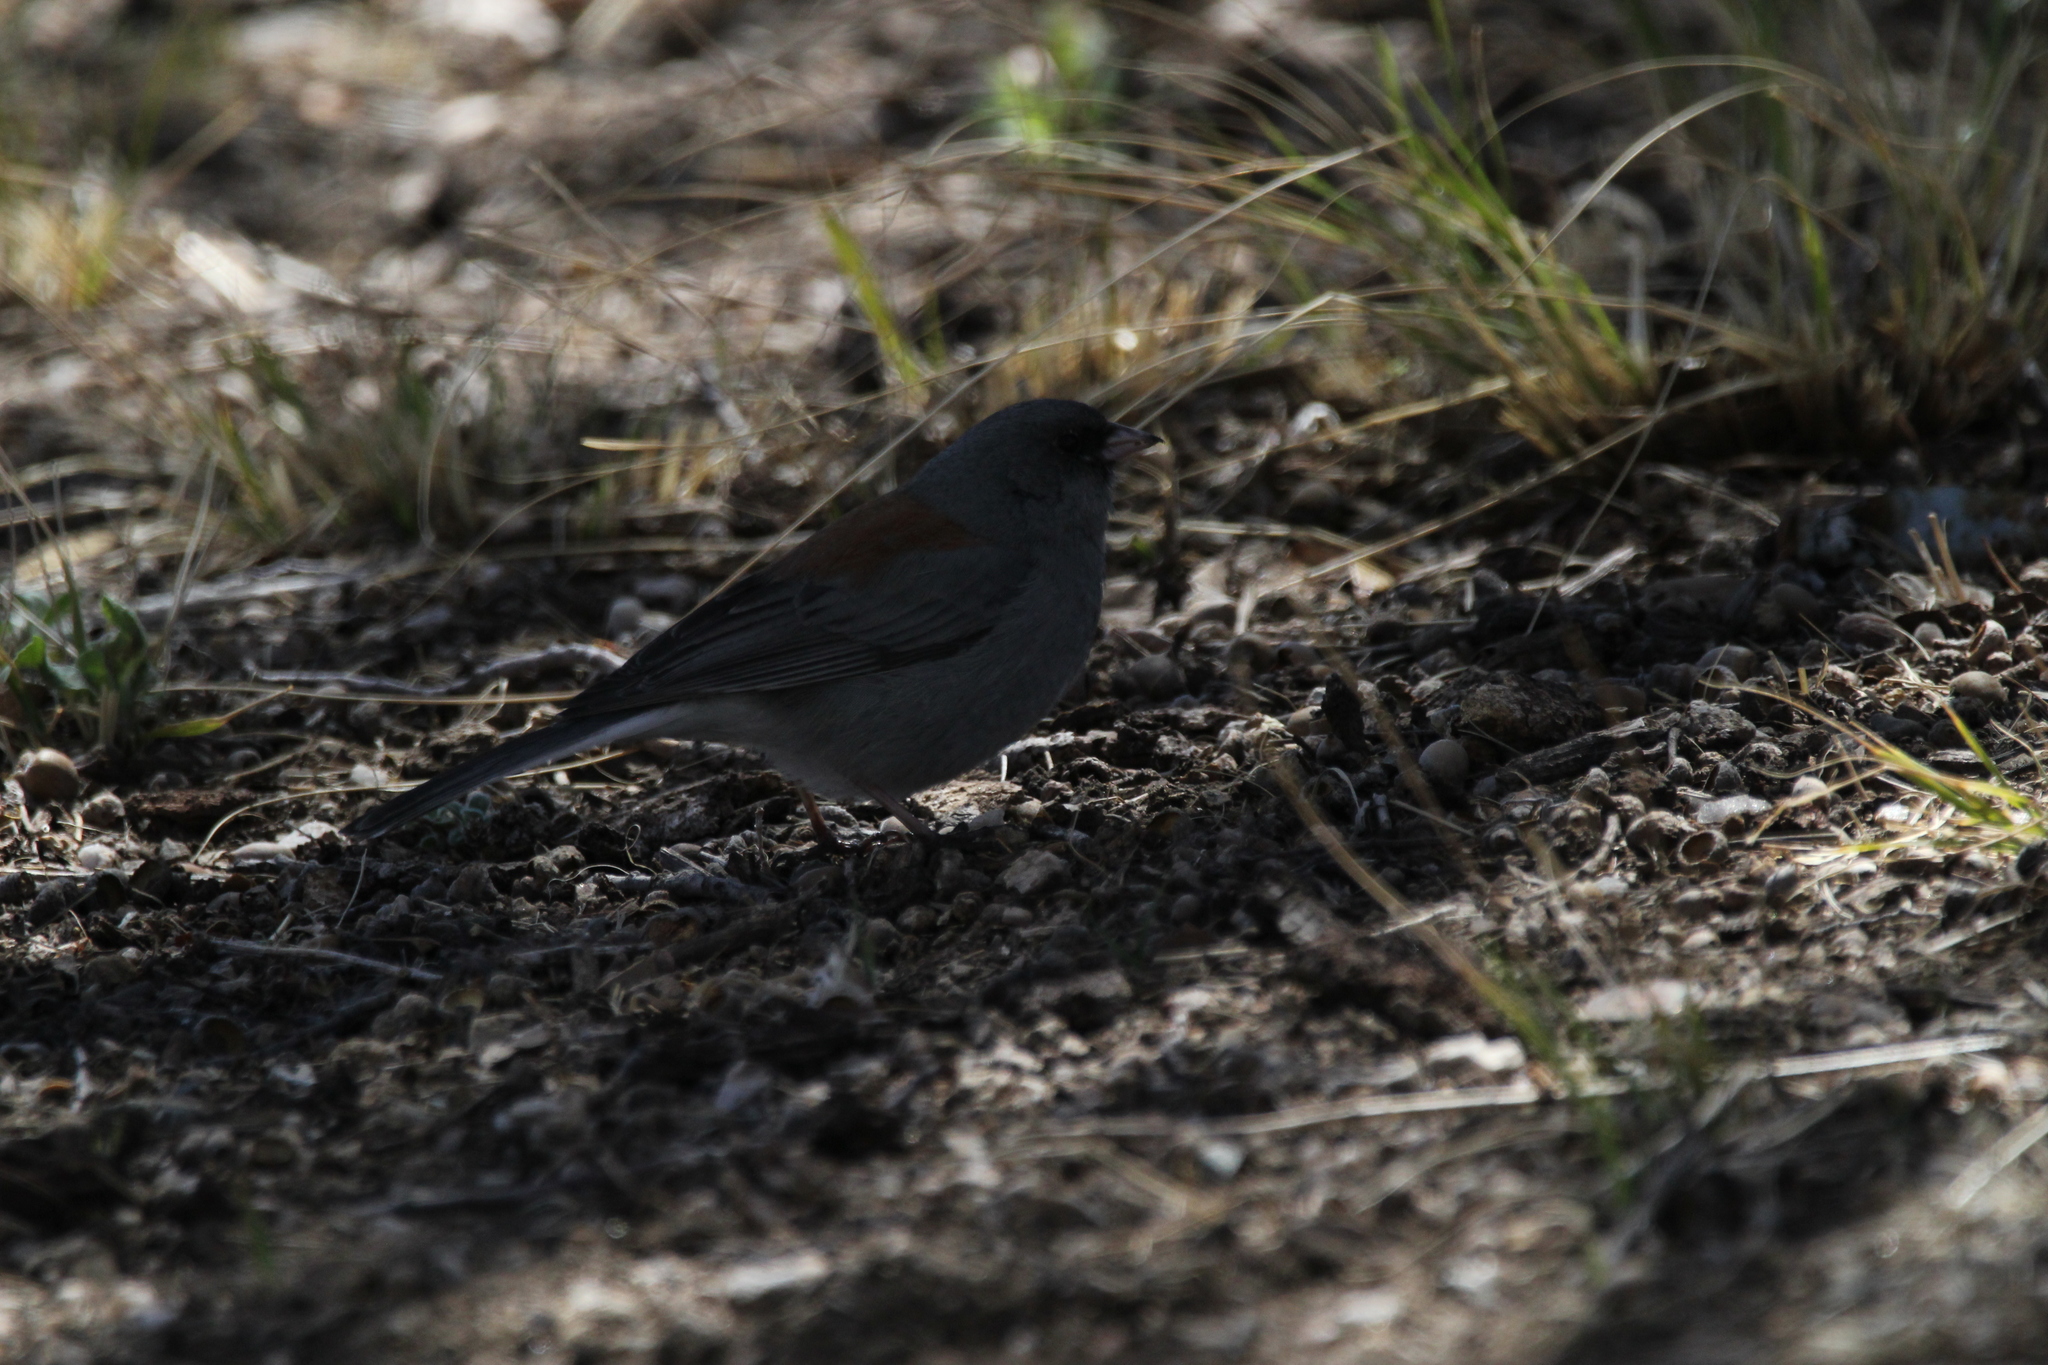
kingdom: Animalia
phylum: Chordata
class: Aves
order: Passeriformes
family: Passerellidae
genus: Junco
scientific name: Junco hyemalis
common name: Dark-eyed junco
